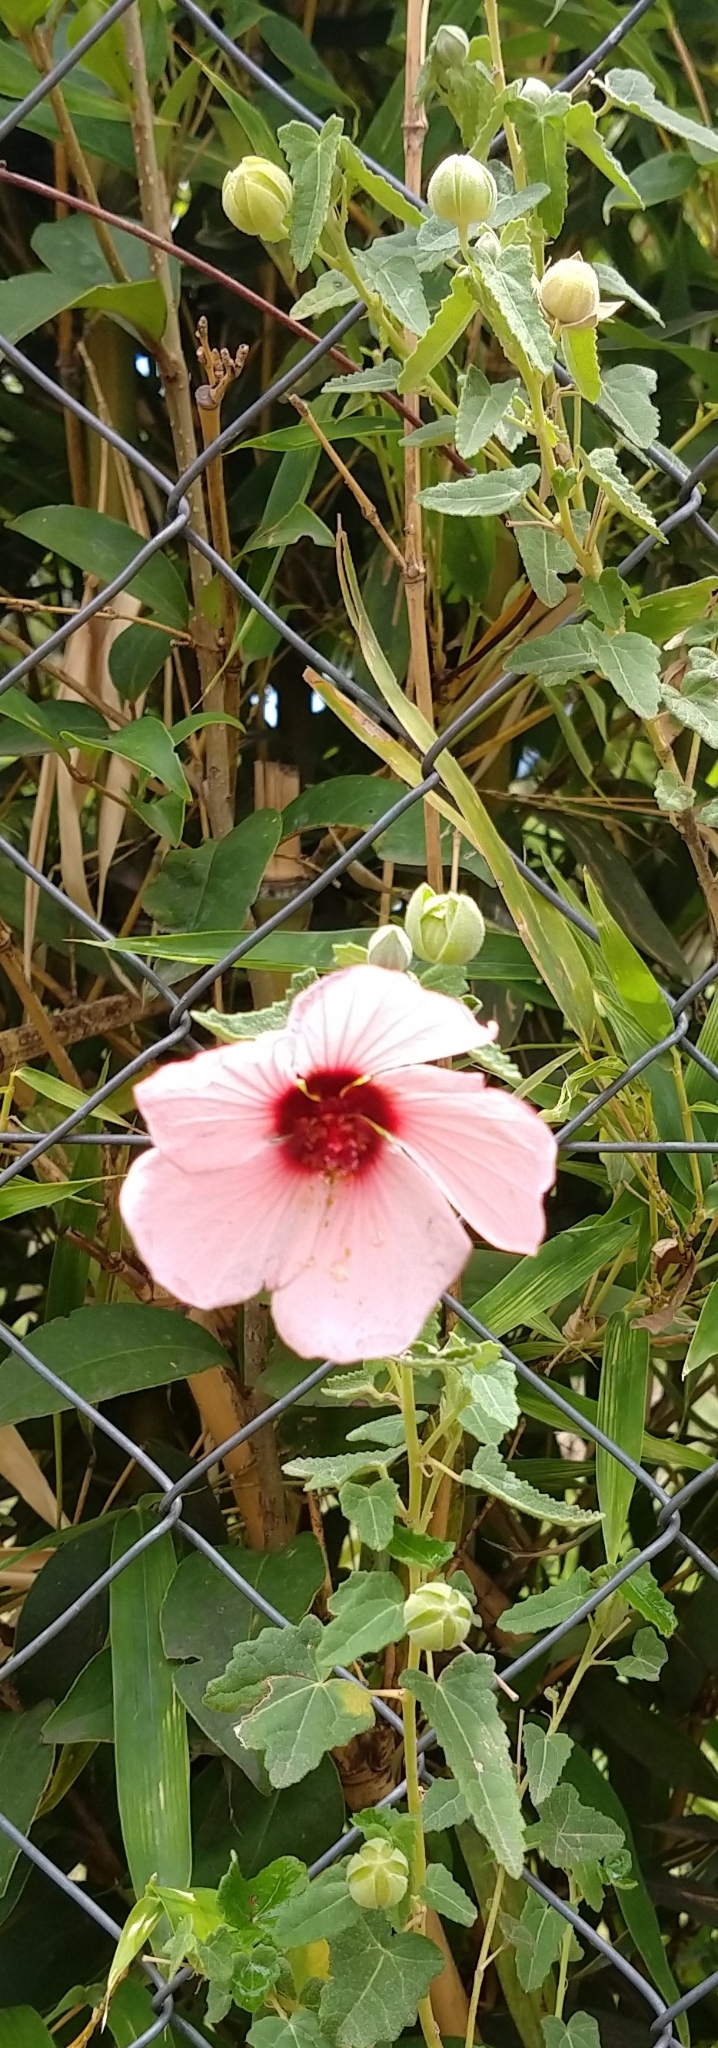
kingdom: Plantae
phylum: Tracheophyta
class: Magnoliopsida
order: Malvales
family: Malvaceae
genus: Pavonia
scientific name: Pavonia aurigloba
